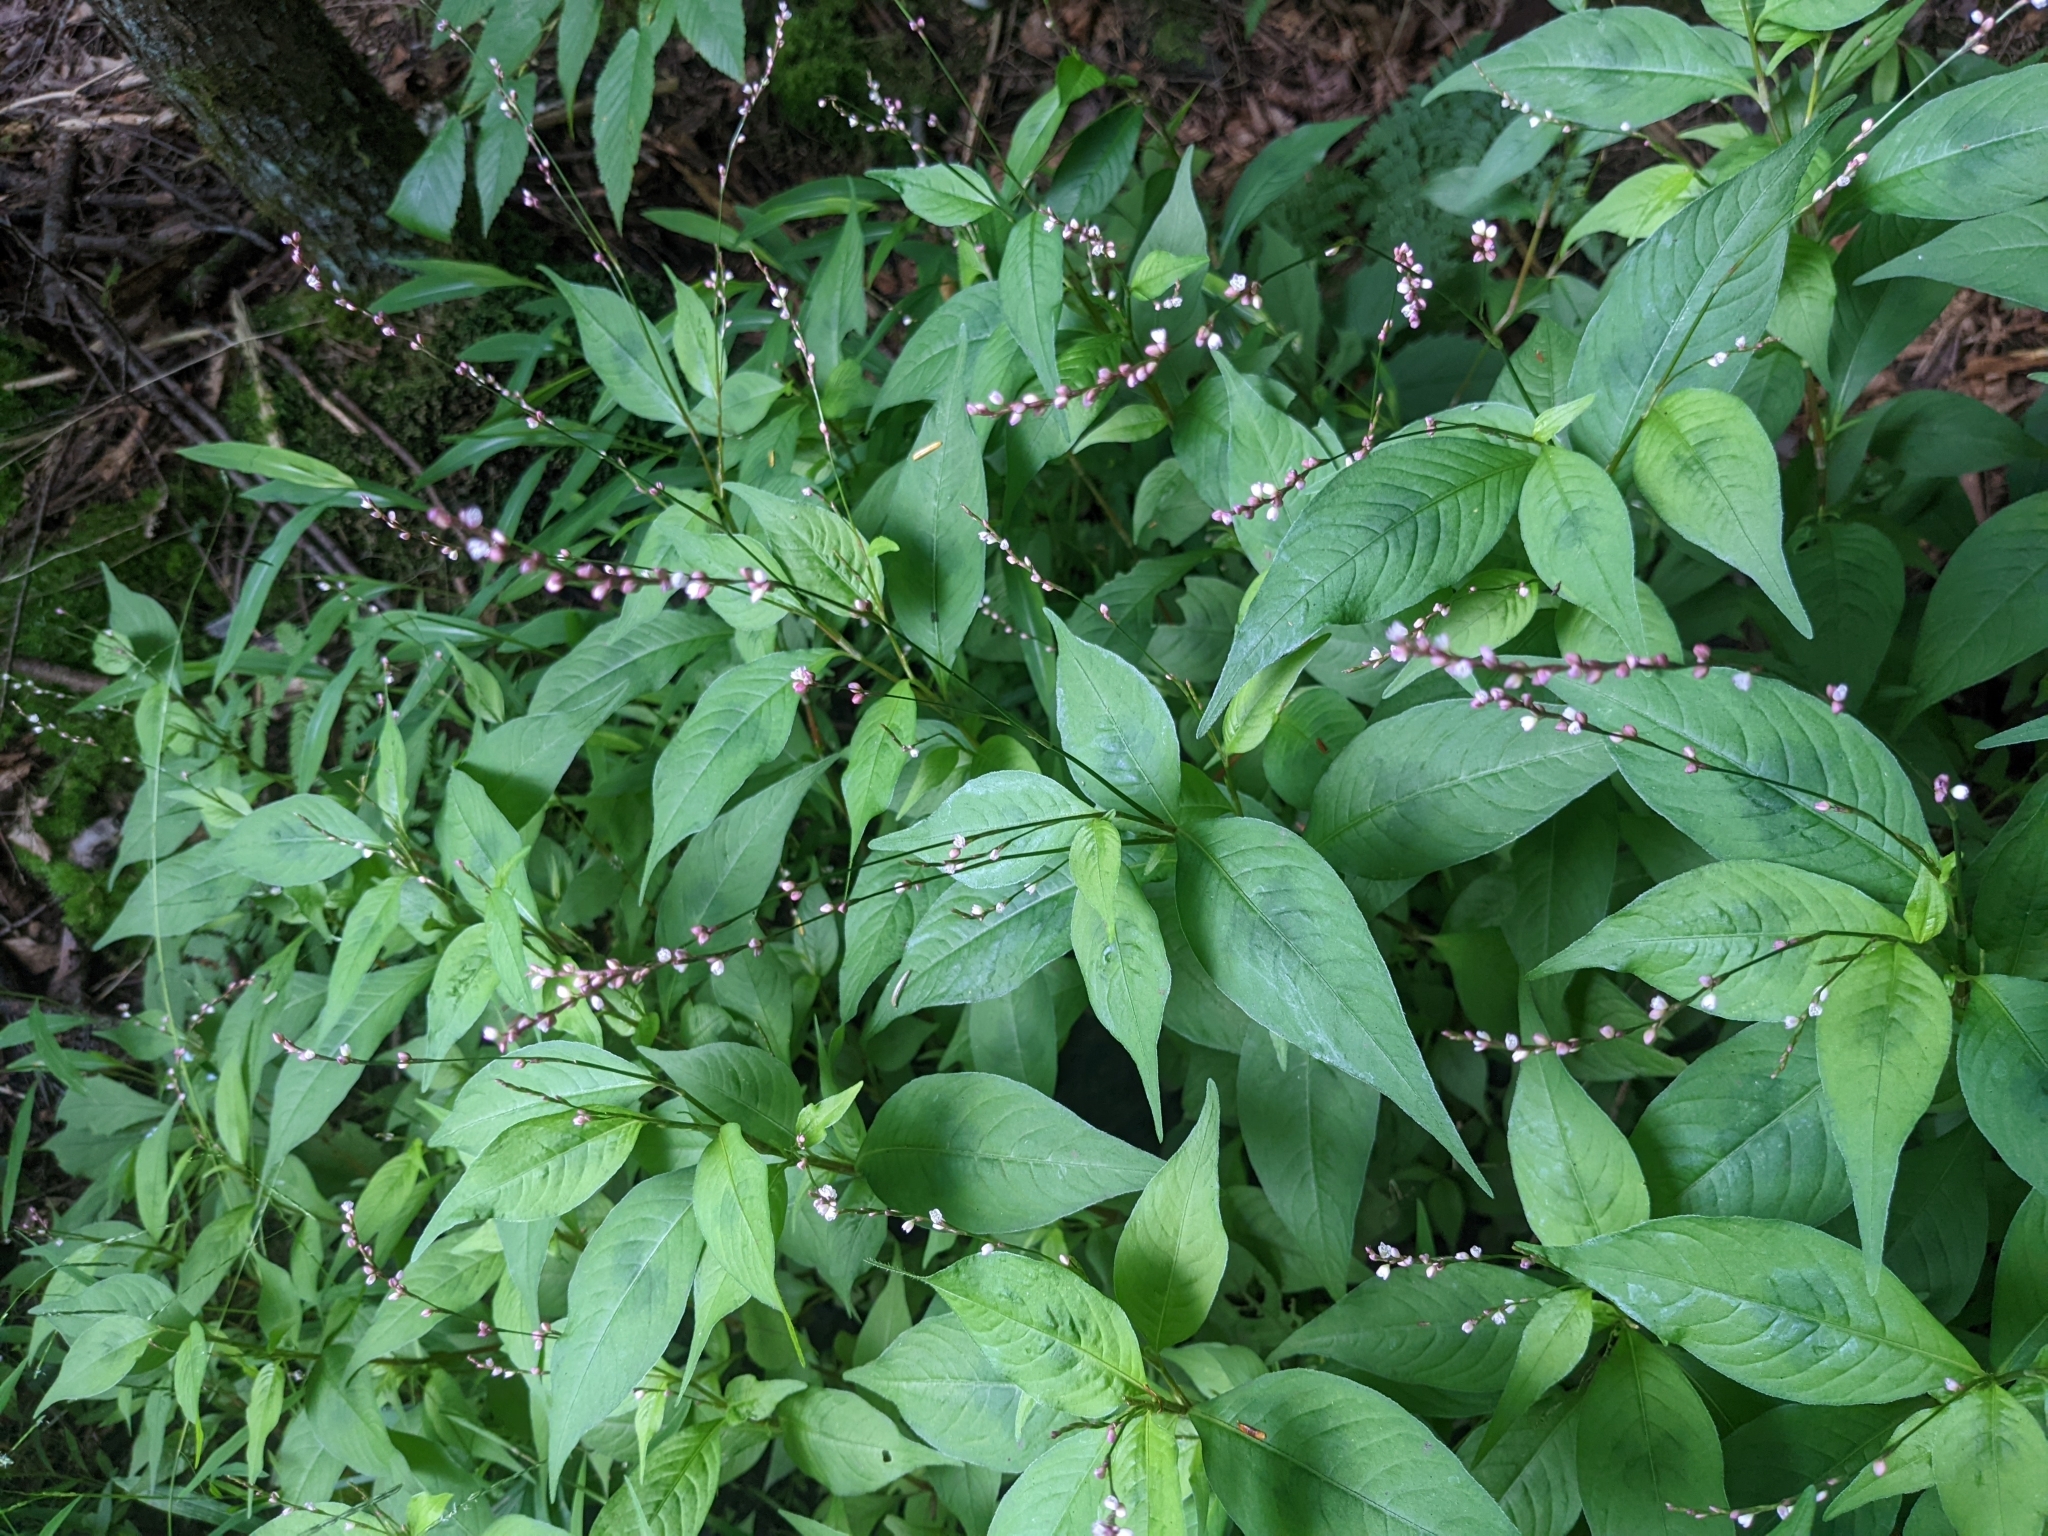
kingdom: Plantae
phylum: Tracheophyta
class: Magnoliopsida
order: Caryophyllales
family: Polygonaceae
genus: Persicaria
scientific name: Persicaria virginiana
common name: Jumpseed
